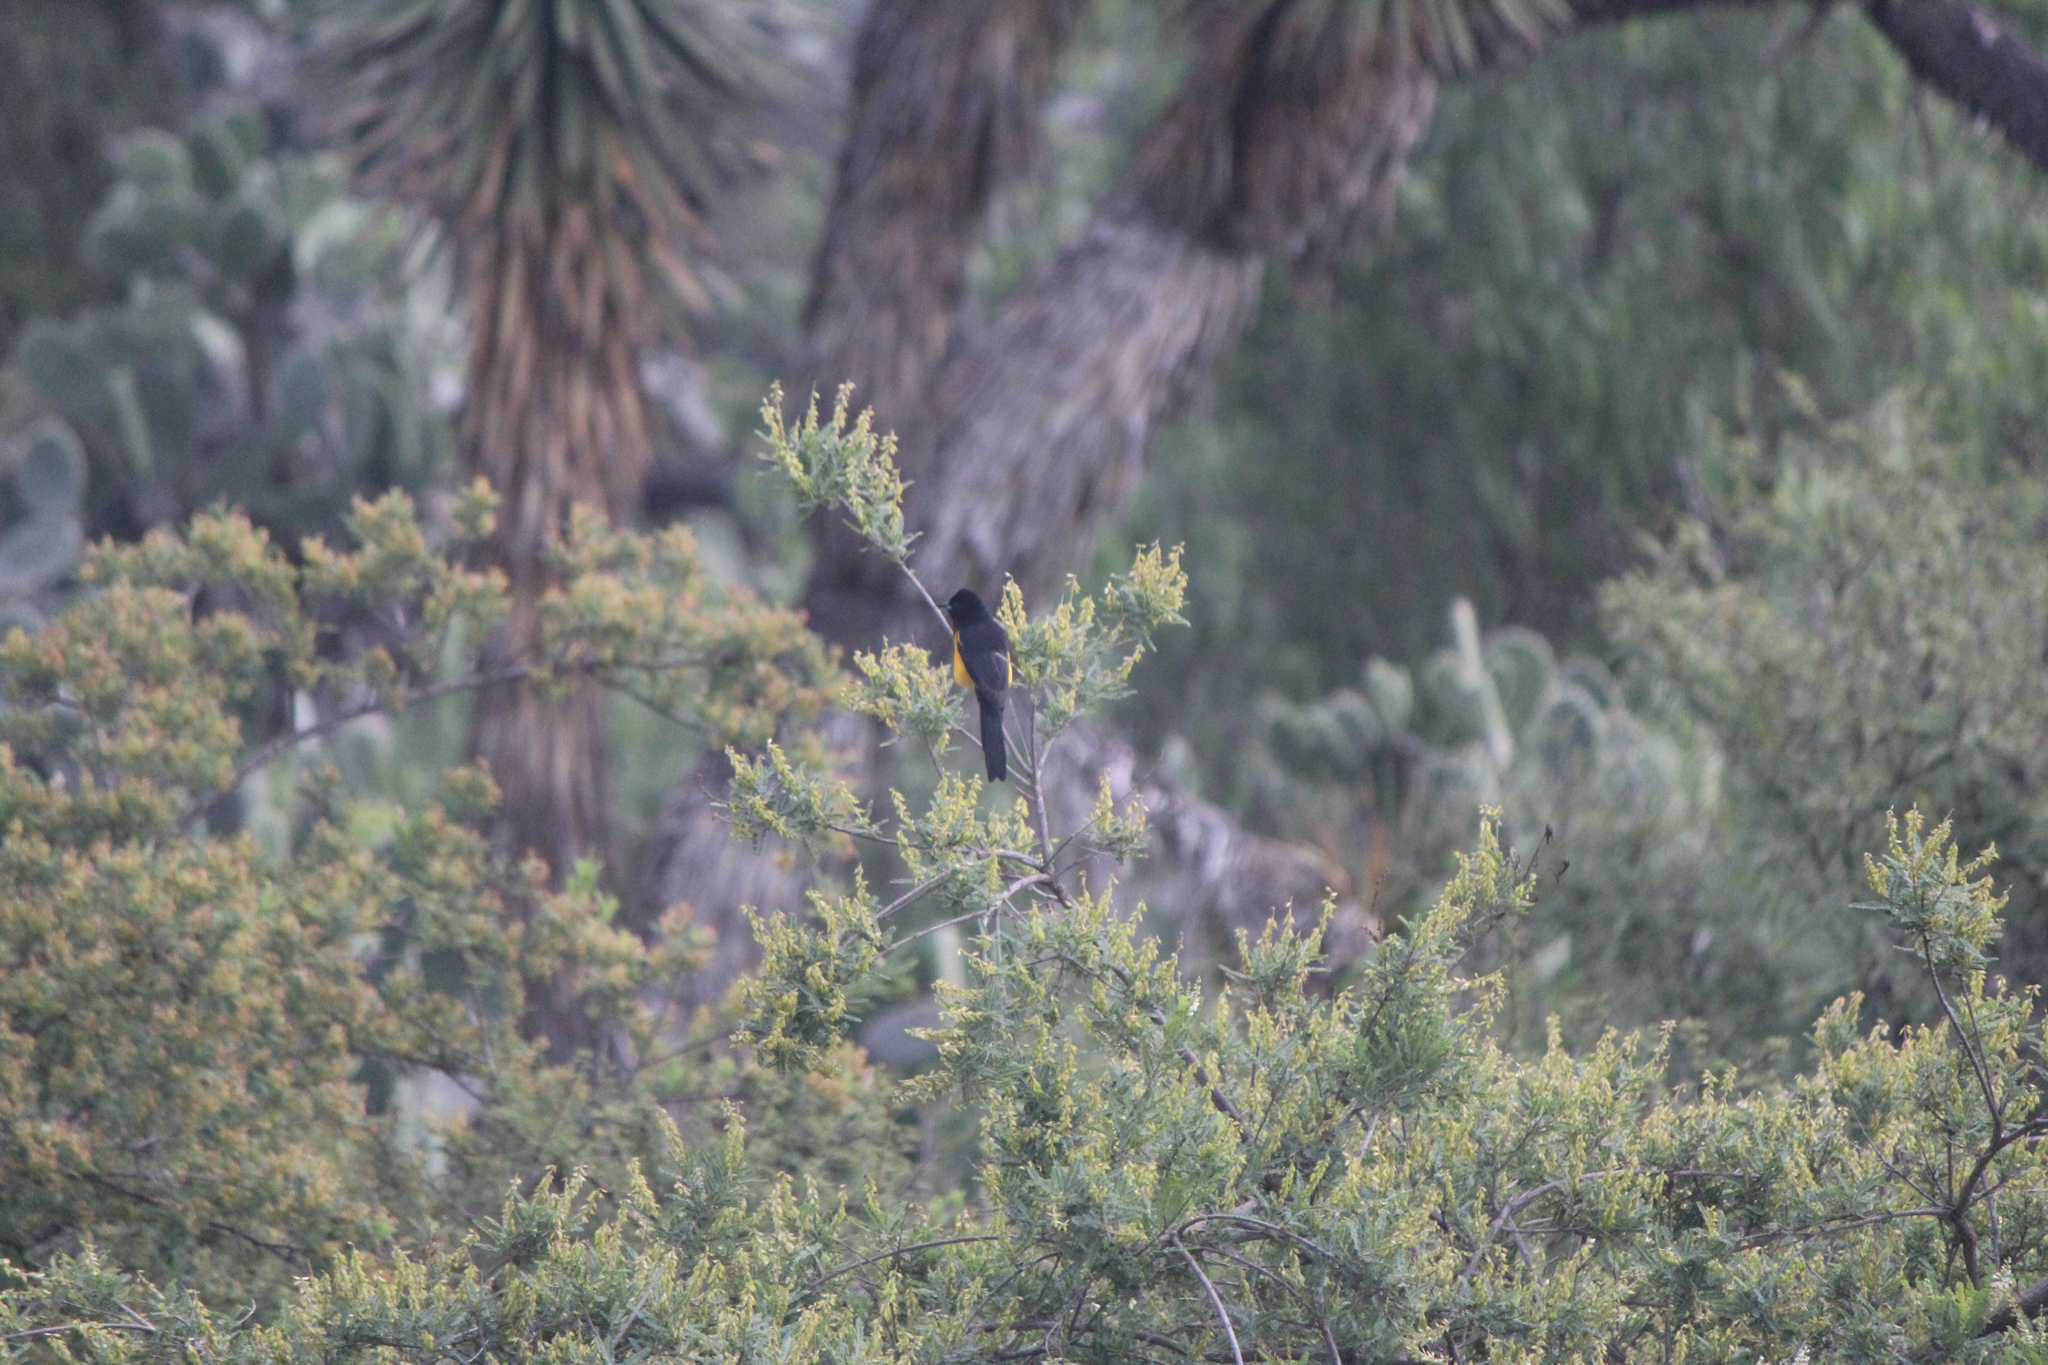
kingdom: Animalia
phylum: Chordata
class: Aves
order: Passeriformes
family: Icteridae
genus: Icterus
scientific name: Icterus wagleri
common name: Black-vented oriole
